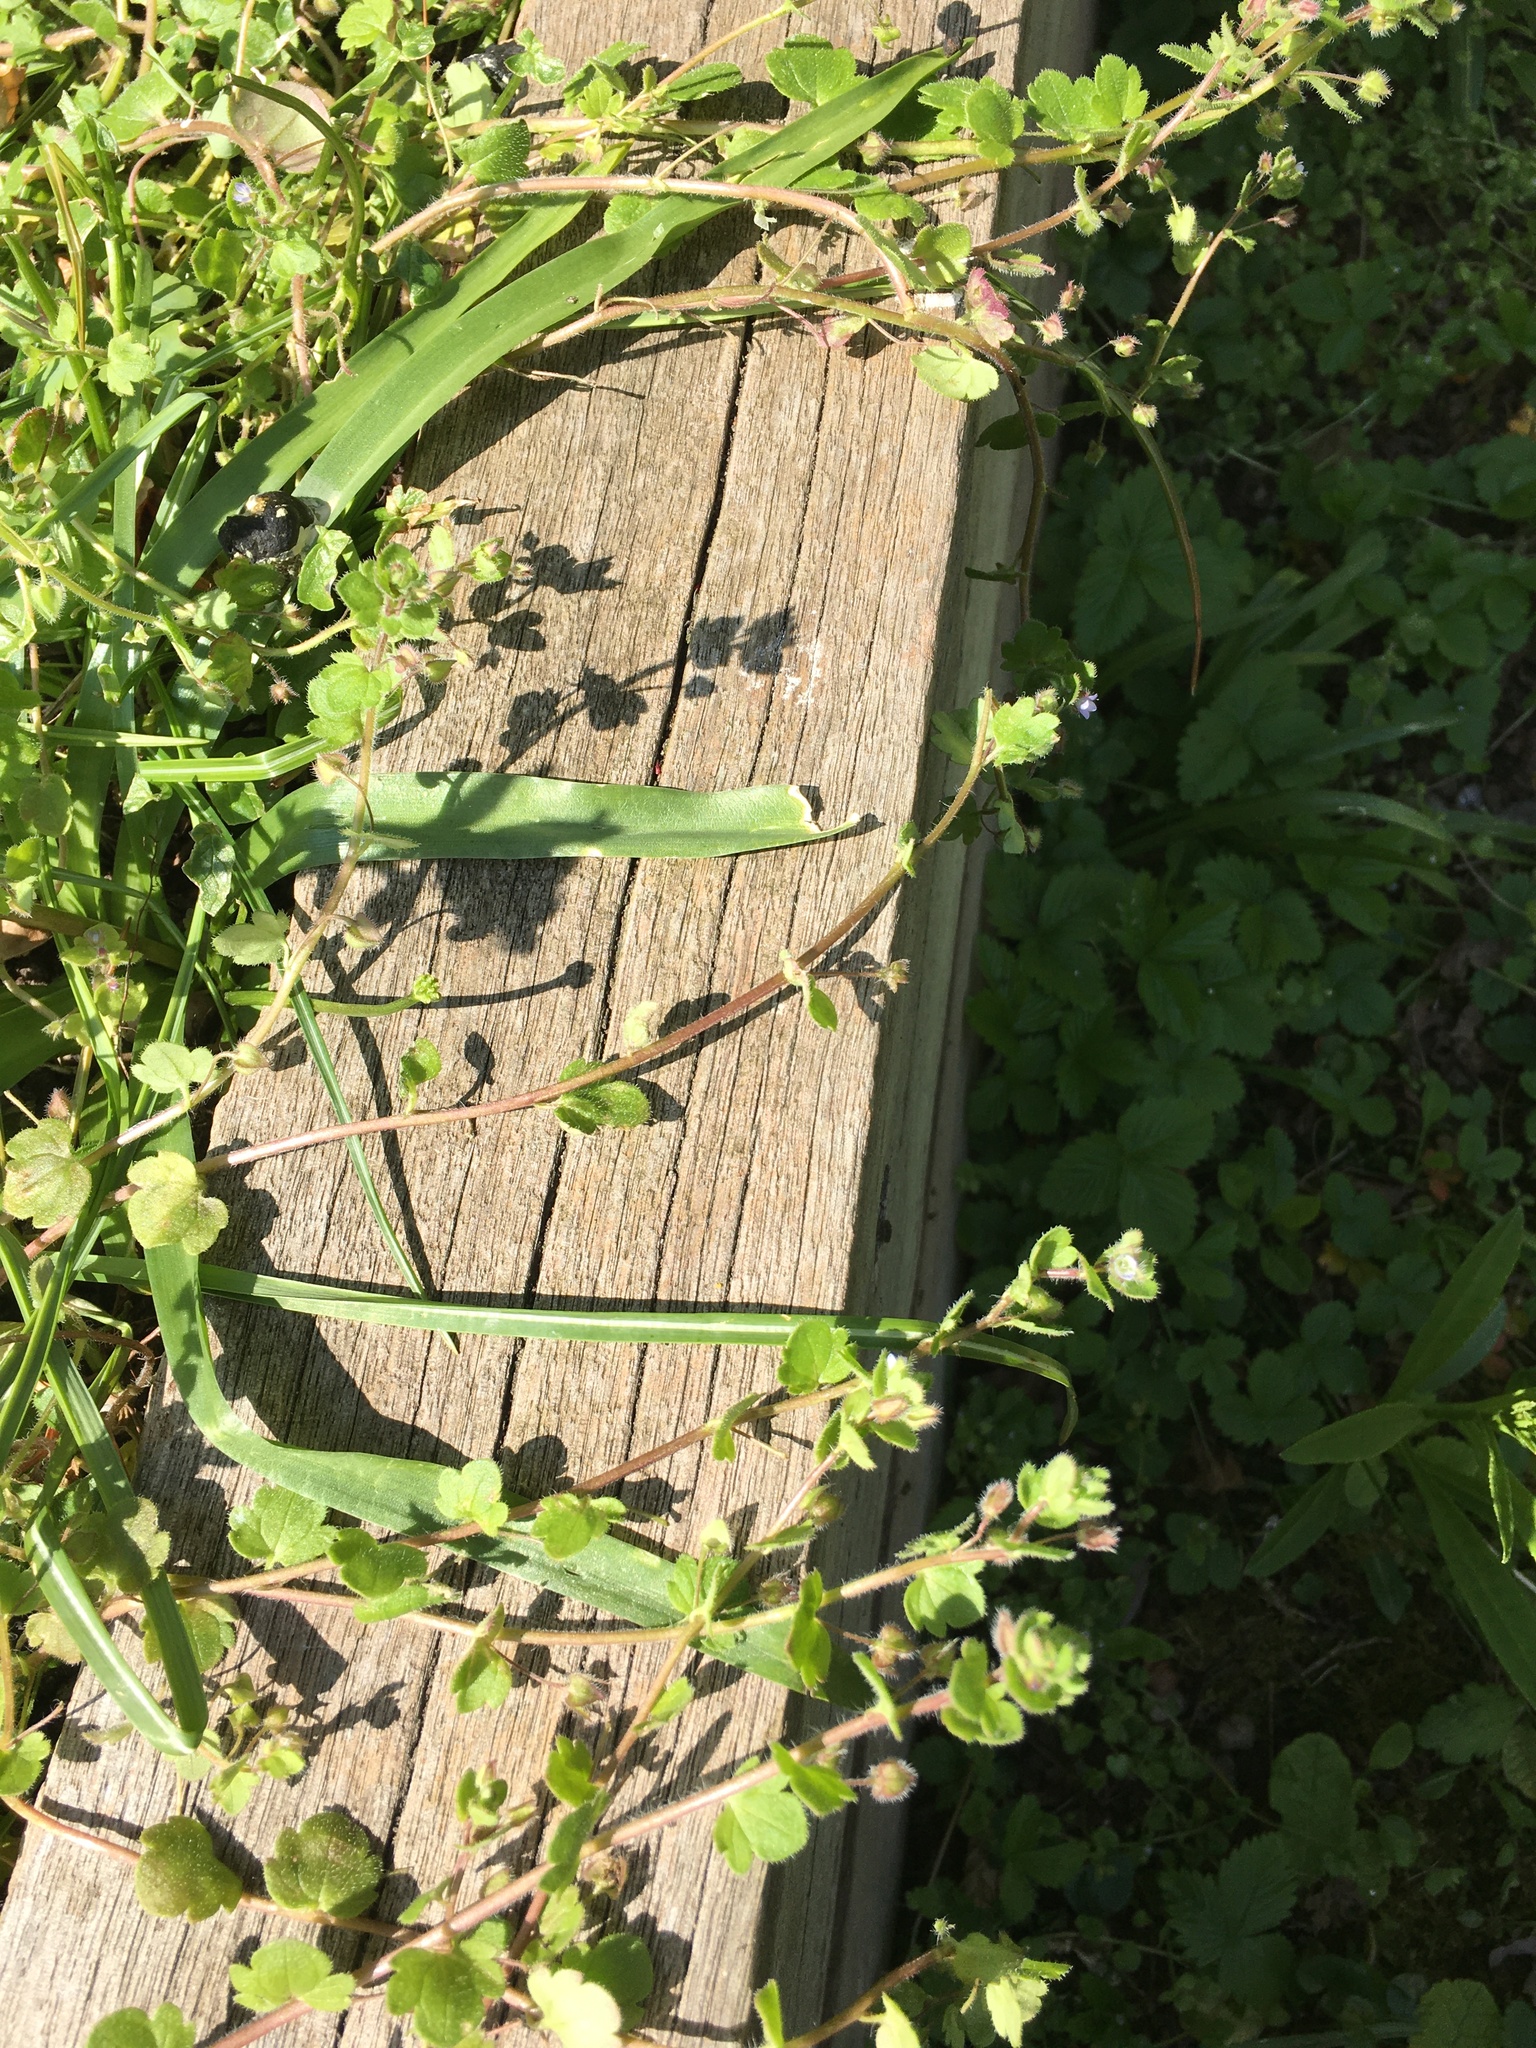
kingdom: Plantae
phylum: Tracheophyta
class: Magnoliopsida
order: Lamiales
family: Plantaginaceae
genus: Veronica
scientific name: Veronica sublobata
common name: False ivy-leaved speedwell
